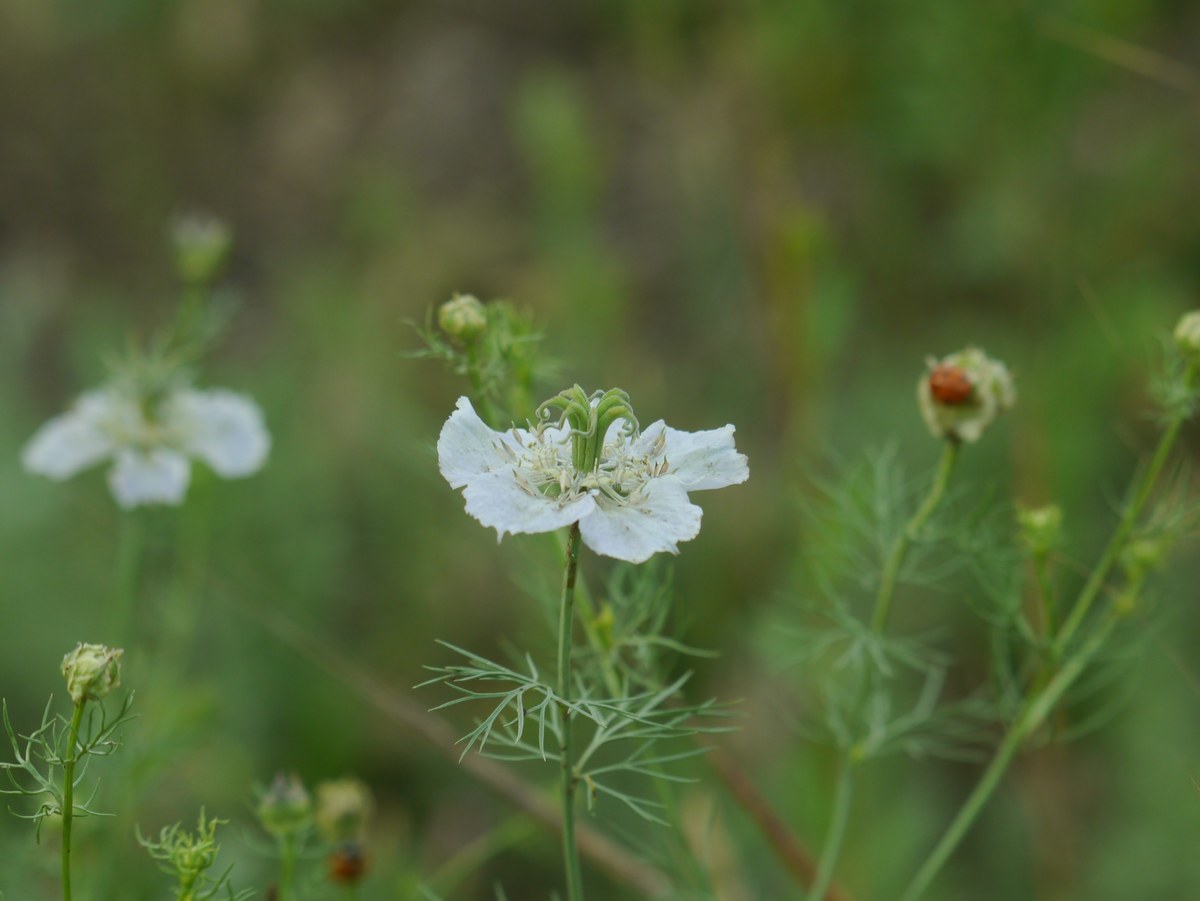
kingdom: Plantae
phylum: Tracheophyta
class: Magnoliopsida
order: Ranunculales
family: Ranunculaceae
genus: Nigella
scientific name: Nigella arvensis
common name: Wild fennel-flower
